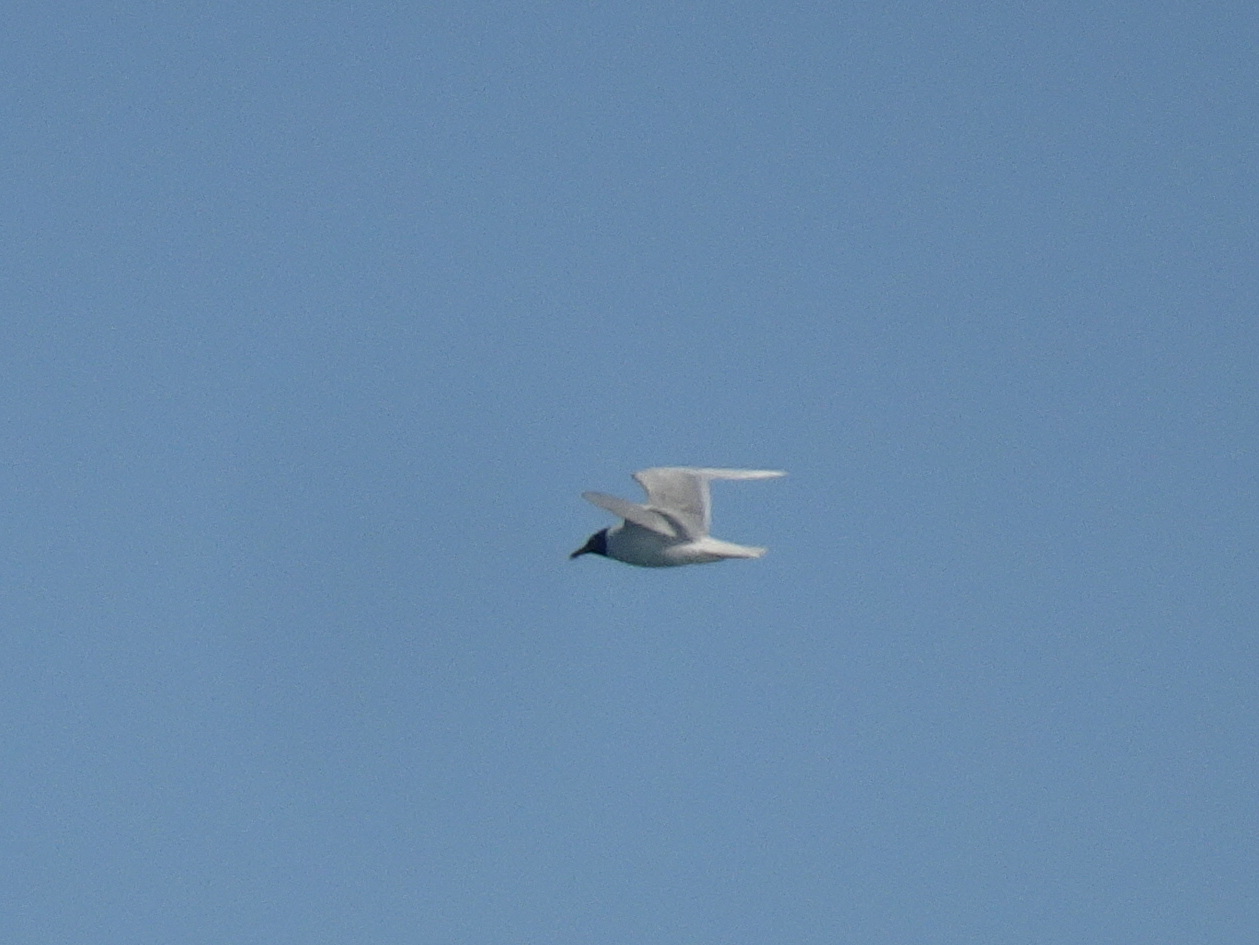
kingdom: Animalia
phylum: Chordata
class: Aves
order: Charadriiformes
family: Laridae
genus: Ichthyaetus
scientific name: Ichthyaetus melanocephalus
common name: Mediterranean gull
